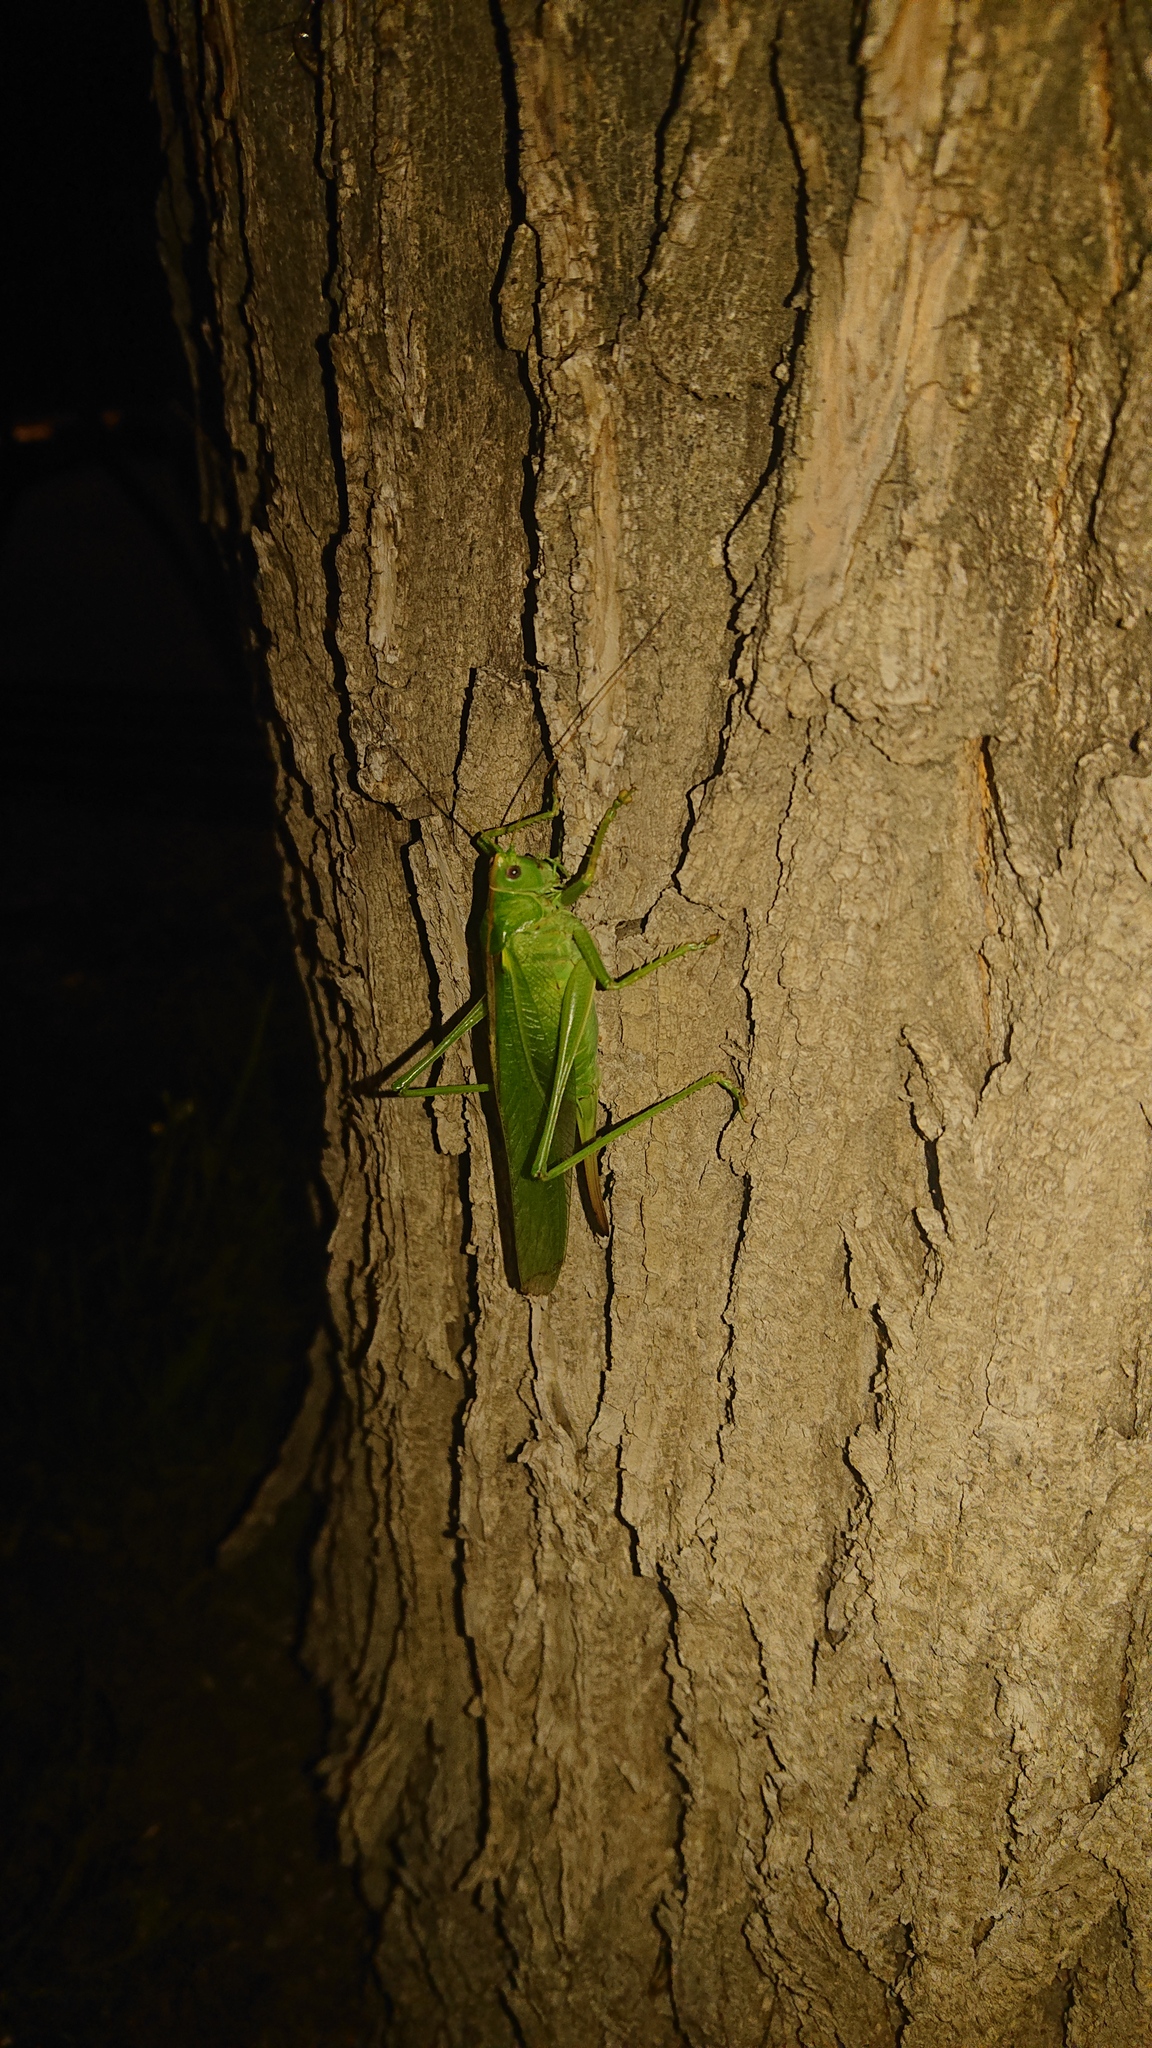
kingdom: Animalia
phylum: Arthropoda
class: Insecta
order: Orthoptera
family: Tettigoniidae
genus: Tettigonia
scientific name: Tettigonia viridissima
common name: Great green bush-cricket
